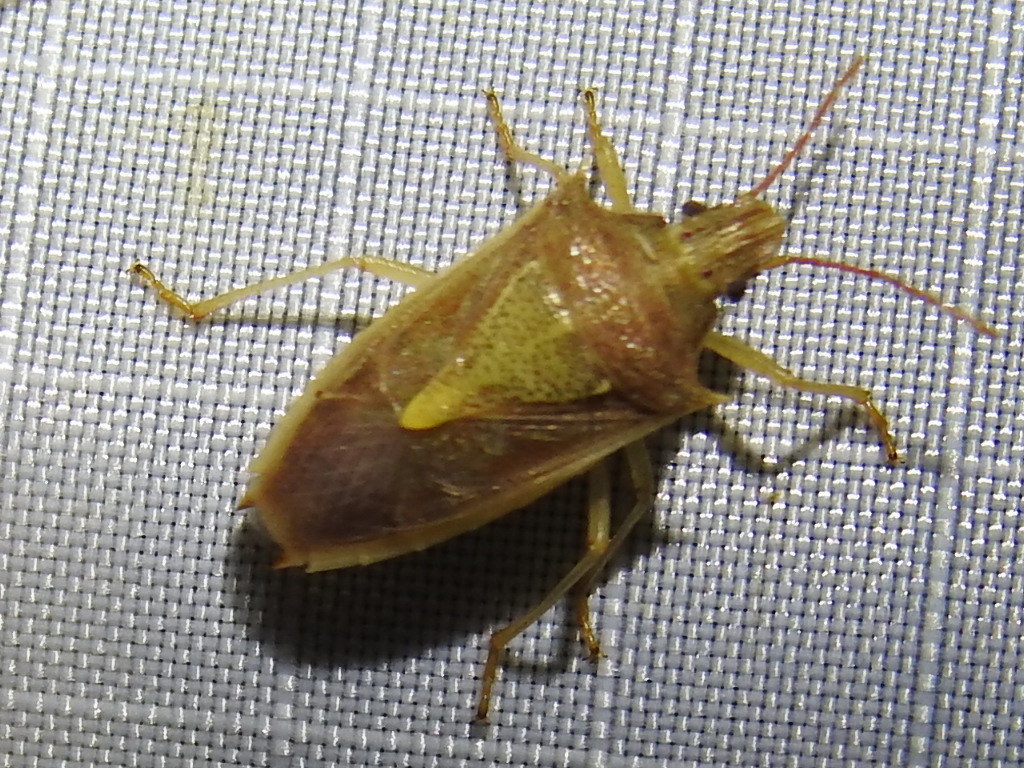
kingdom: Animalia
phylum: Arthropoda
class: Insecta
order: Hemiptera
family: Pentatomidae
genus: Oebalus
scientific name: Oebalus pugnax
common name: Rice stink bug
